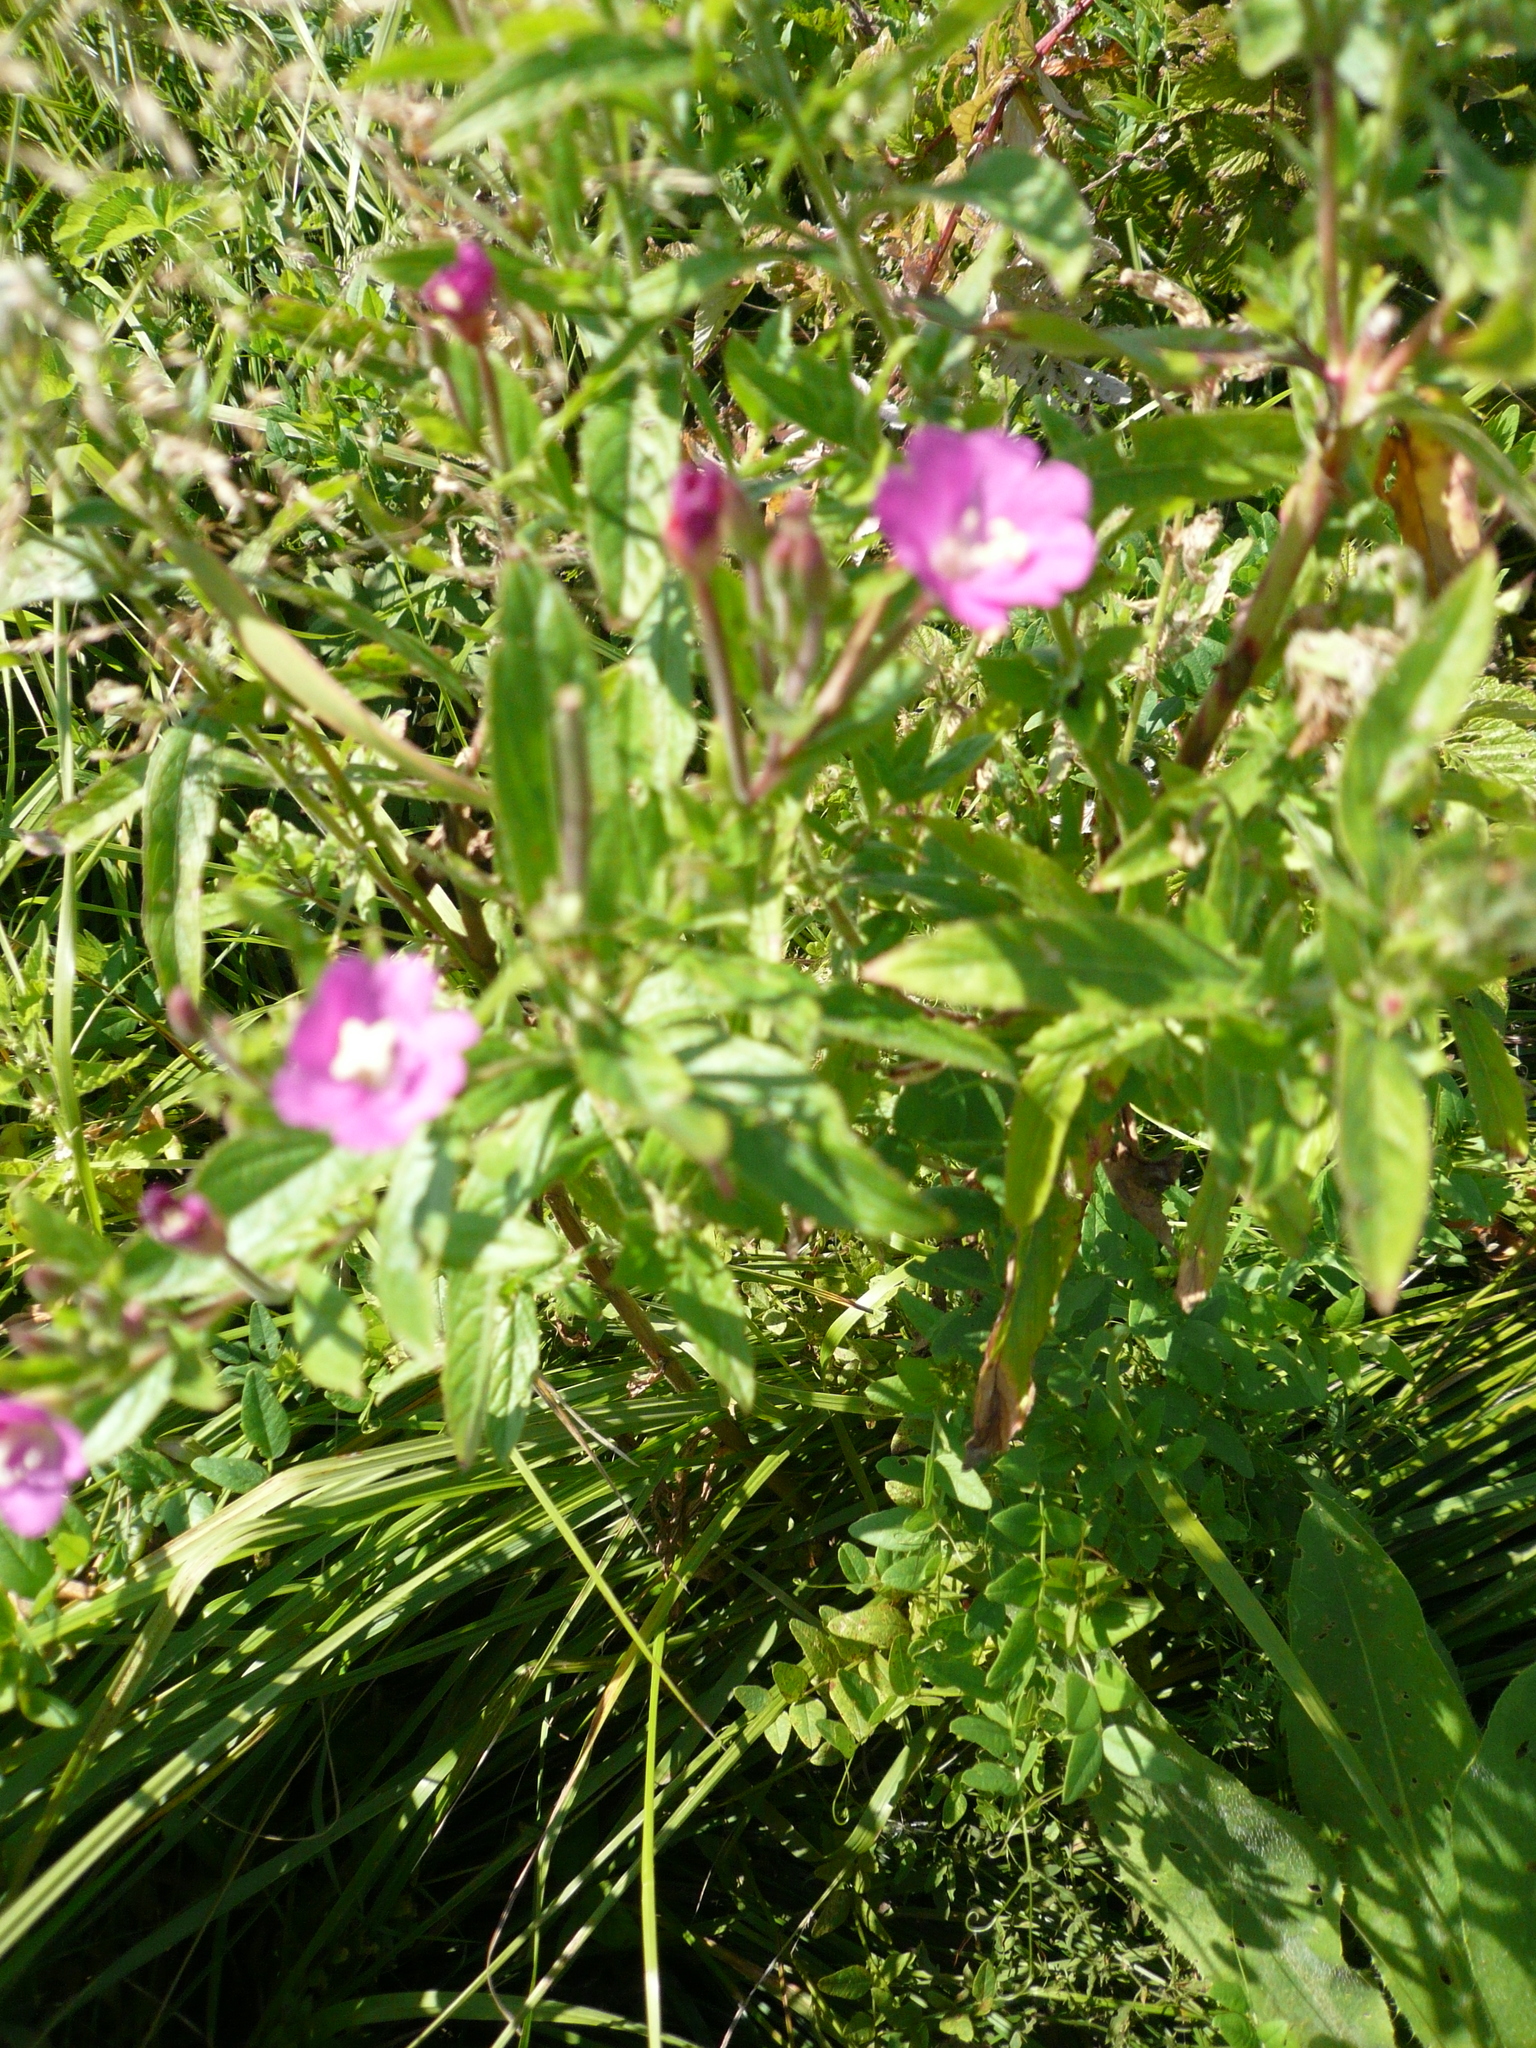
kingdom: Plantae
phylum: Tracheophyta
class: Magnoliopsida
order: Myrtales
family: Onagraceae
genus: Epilobium
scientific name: Epilobium hirsutum
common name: Great willowherb
